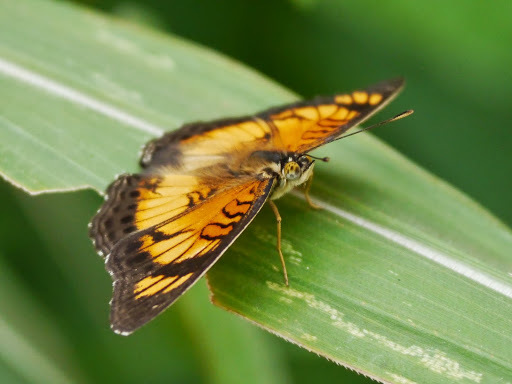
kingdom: Animalia
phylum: Arthropoda
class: Insecta
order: Lepidoptera
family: Nymphalidae
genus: Junonia
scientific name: Junonia sophia
